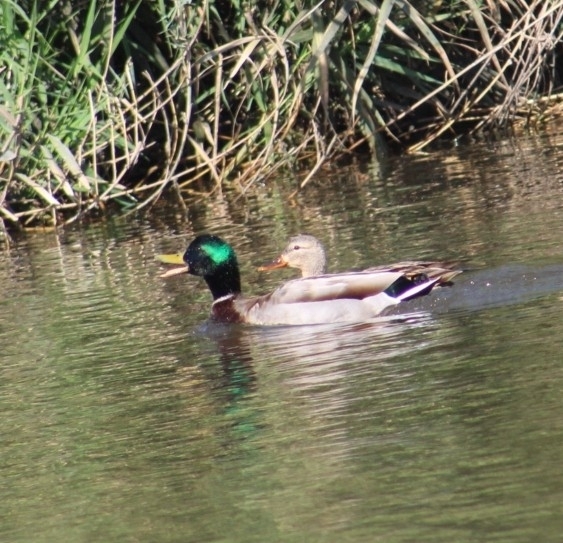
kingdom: Animalia
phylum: Chordata
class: Aves
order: Anseriformes
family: Anatidae
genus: Anas
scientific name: Anas platyrhynchos
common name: Mallard
